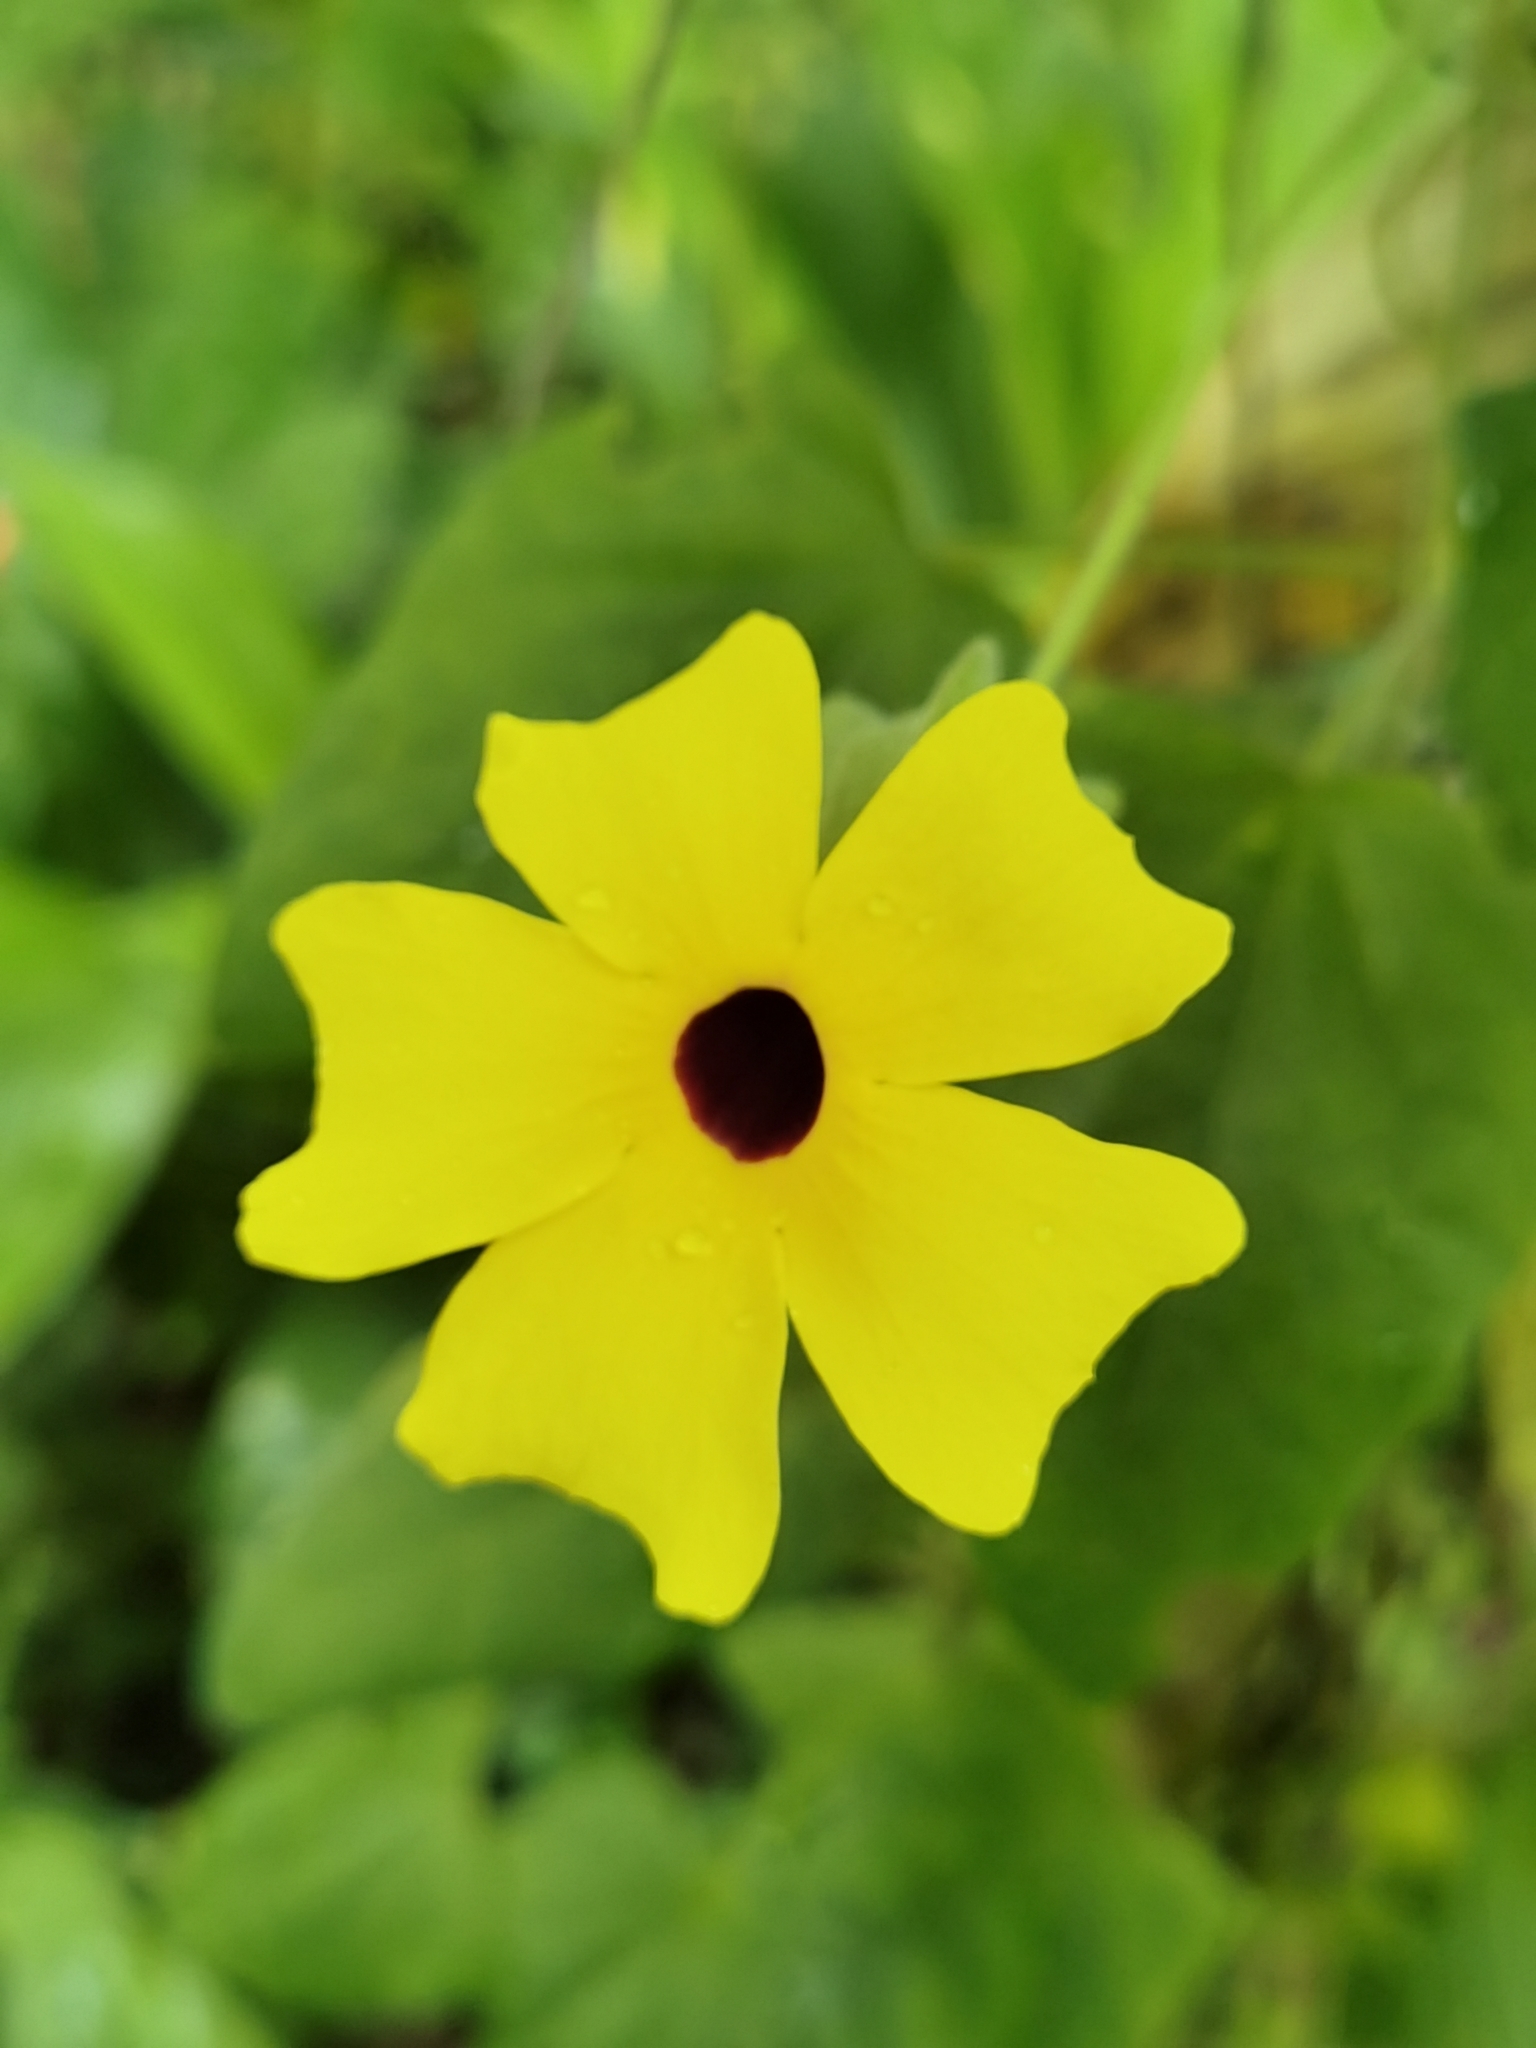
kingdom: Plantae
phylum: Tracheophyta
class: Magnoliopsida
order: Lamiales
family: Acanthaceae
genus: Thunbergia
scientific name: Thunbergia alata
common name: Blackeyed susan vine
